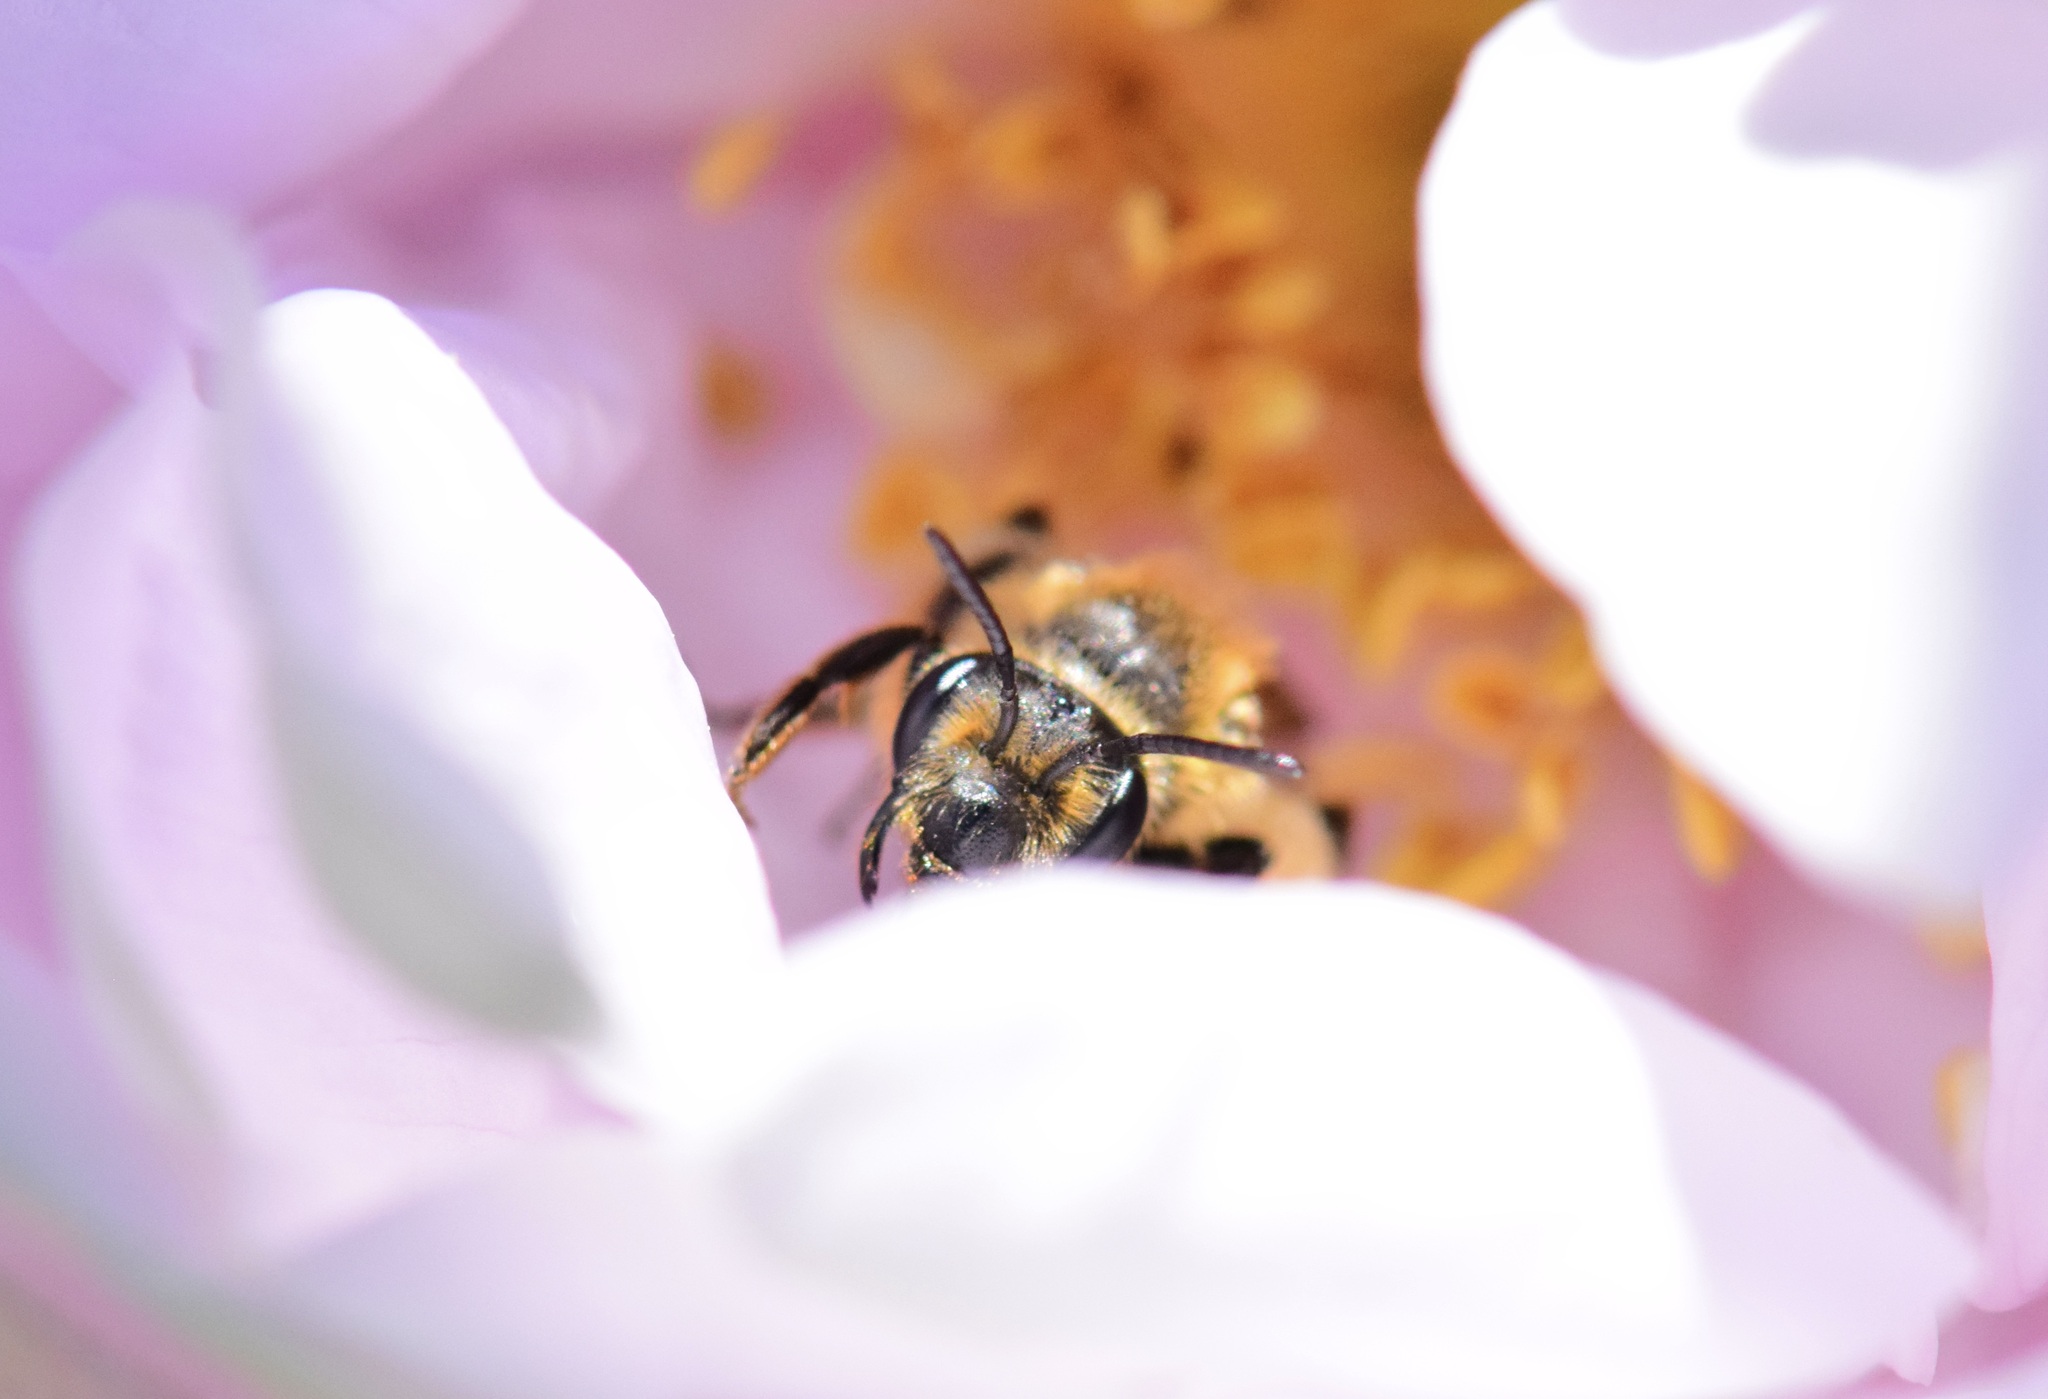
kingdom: Animalia
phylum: Arthropoda
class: Insecta
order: Hymenoptera
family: Andrenidae
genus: Andrena
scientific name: Andrena thaspii
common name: Parsnip miner bee
